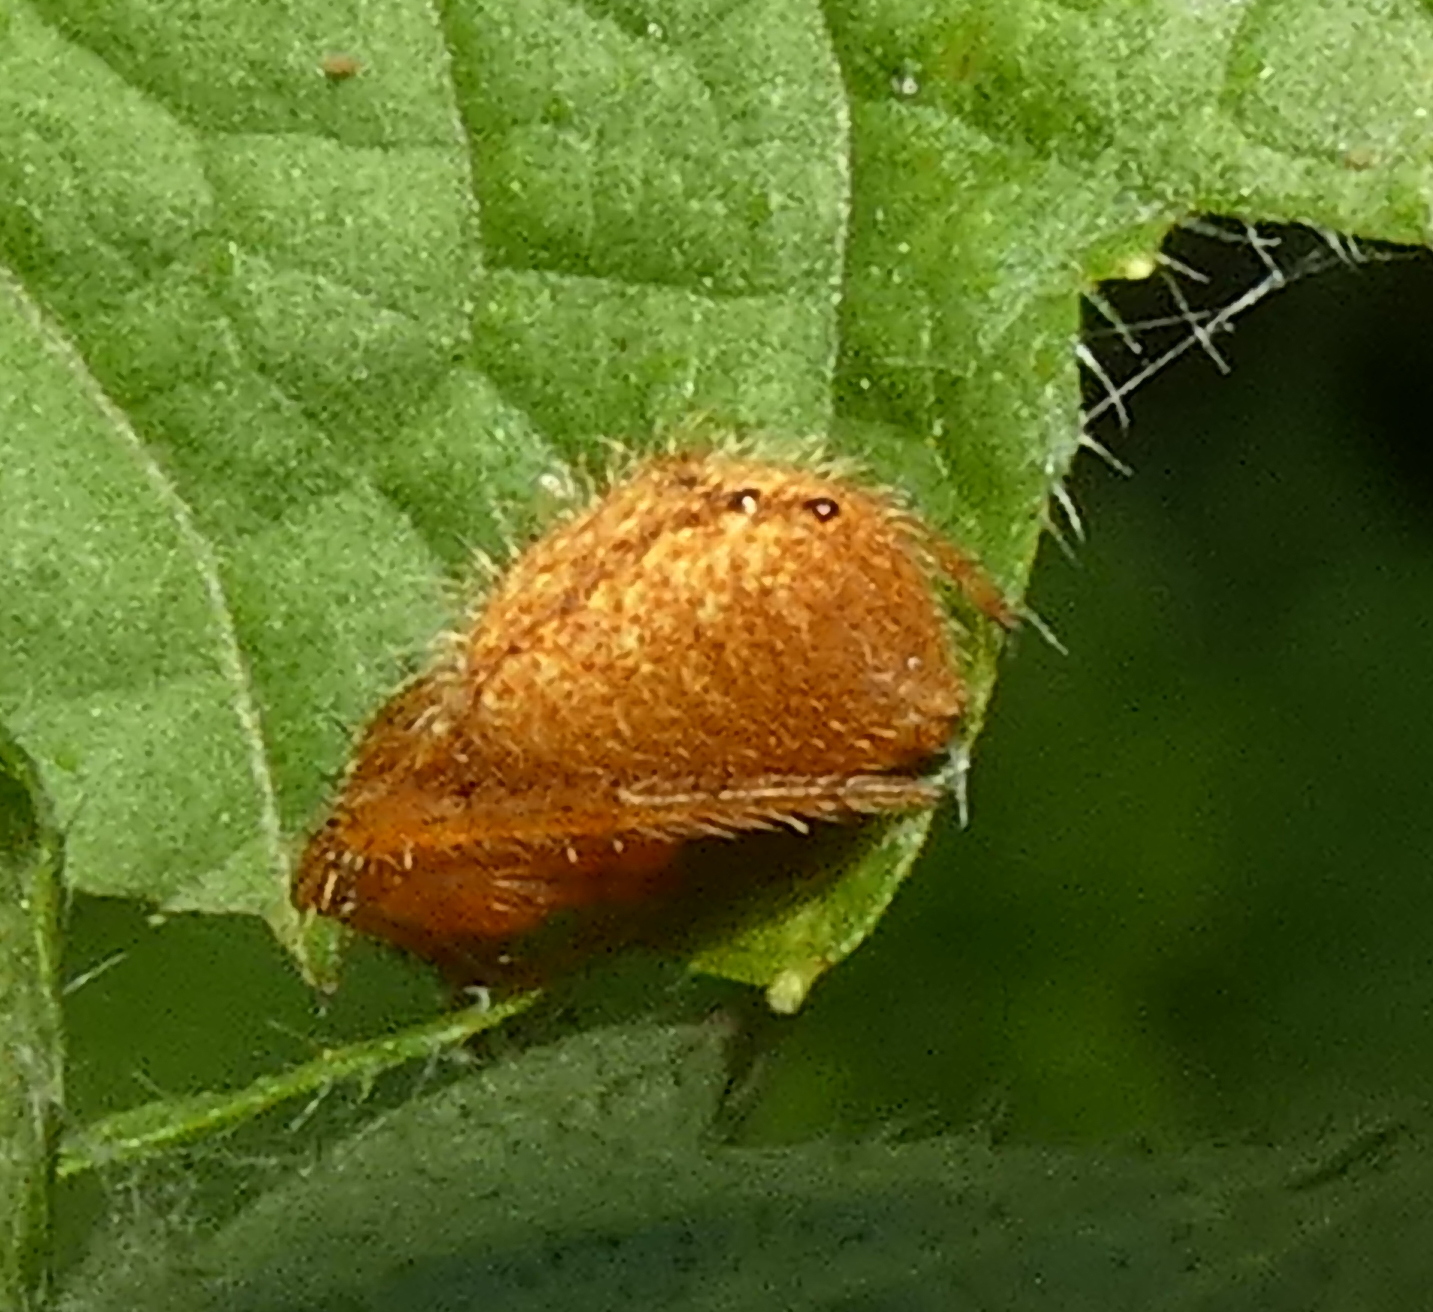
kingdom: Animalia
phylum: Arthropoda
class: Arachnida
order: Araneae
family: Araneidae
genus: Eriophora
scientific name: Eriophora edax
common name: Orb weavers
